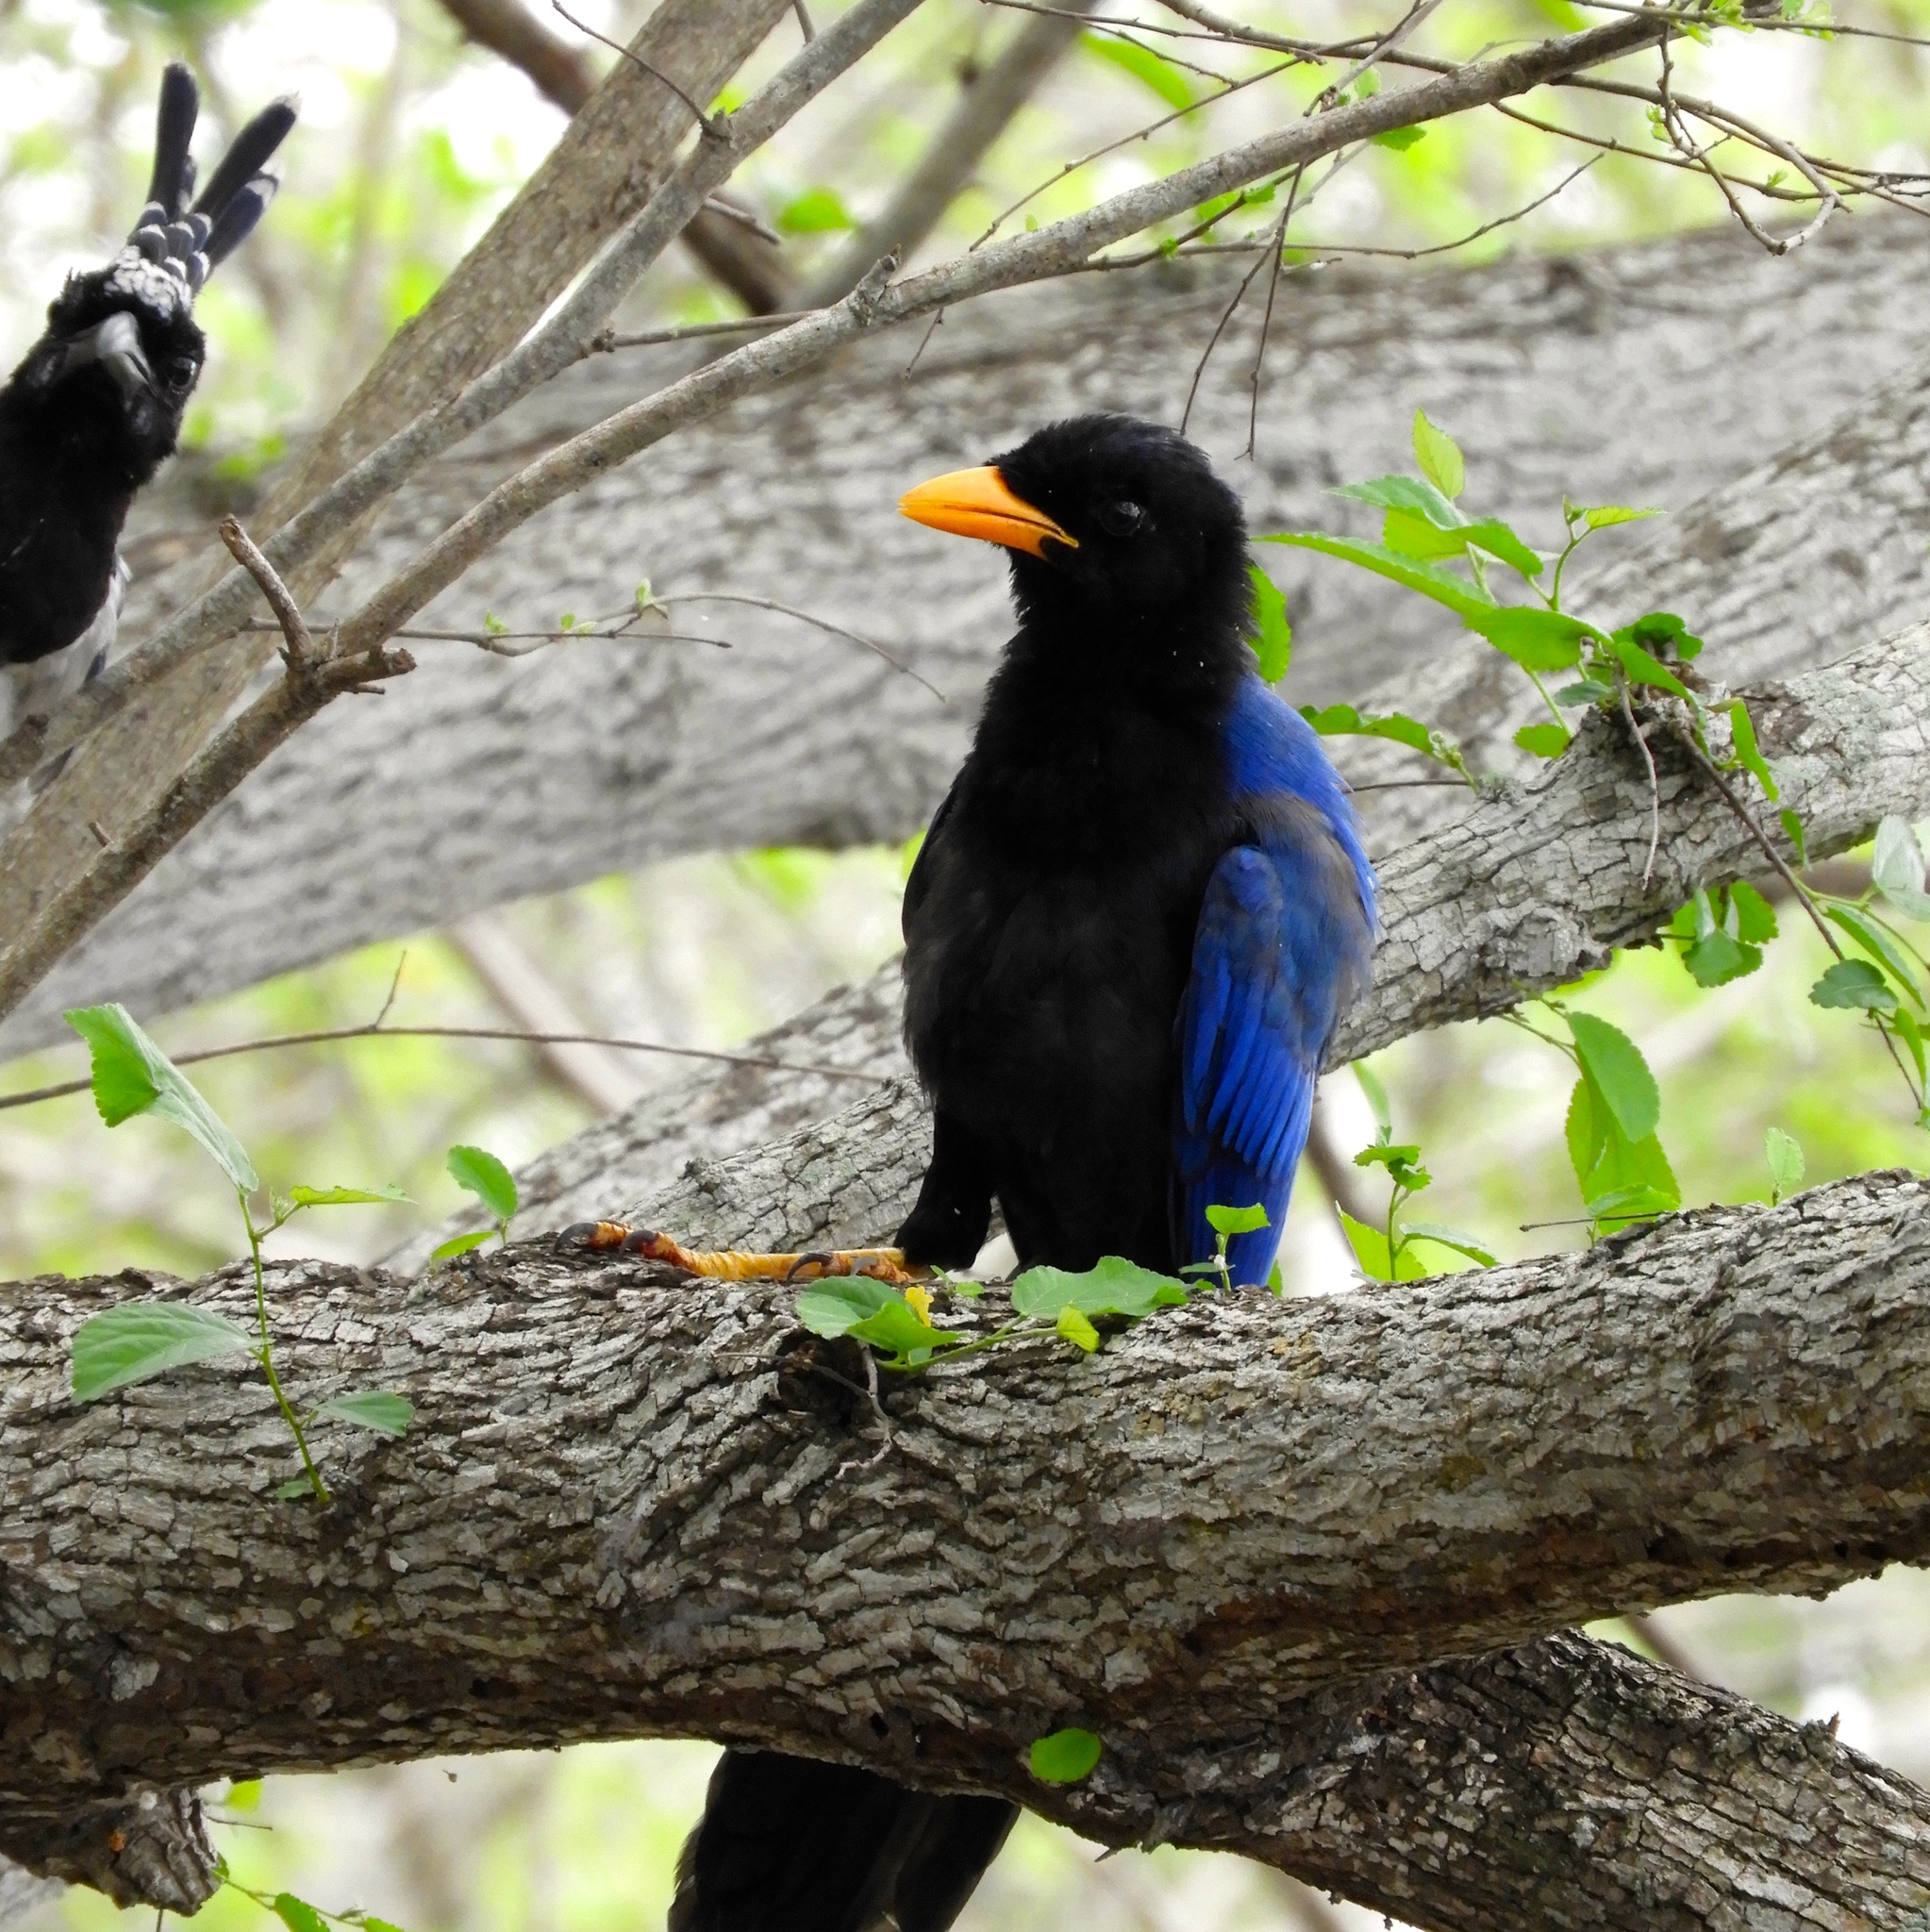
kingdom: Animalia
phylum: Chordata
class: Aves
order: Passeriformes
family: Corvidae
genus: Cyanocorax
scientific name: Cyanocorax beecheii
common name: Purplish-backed jay
